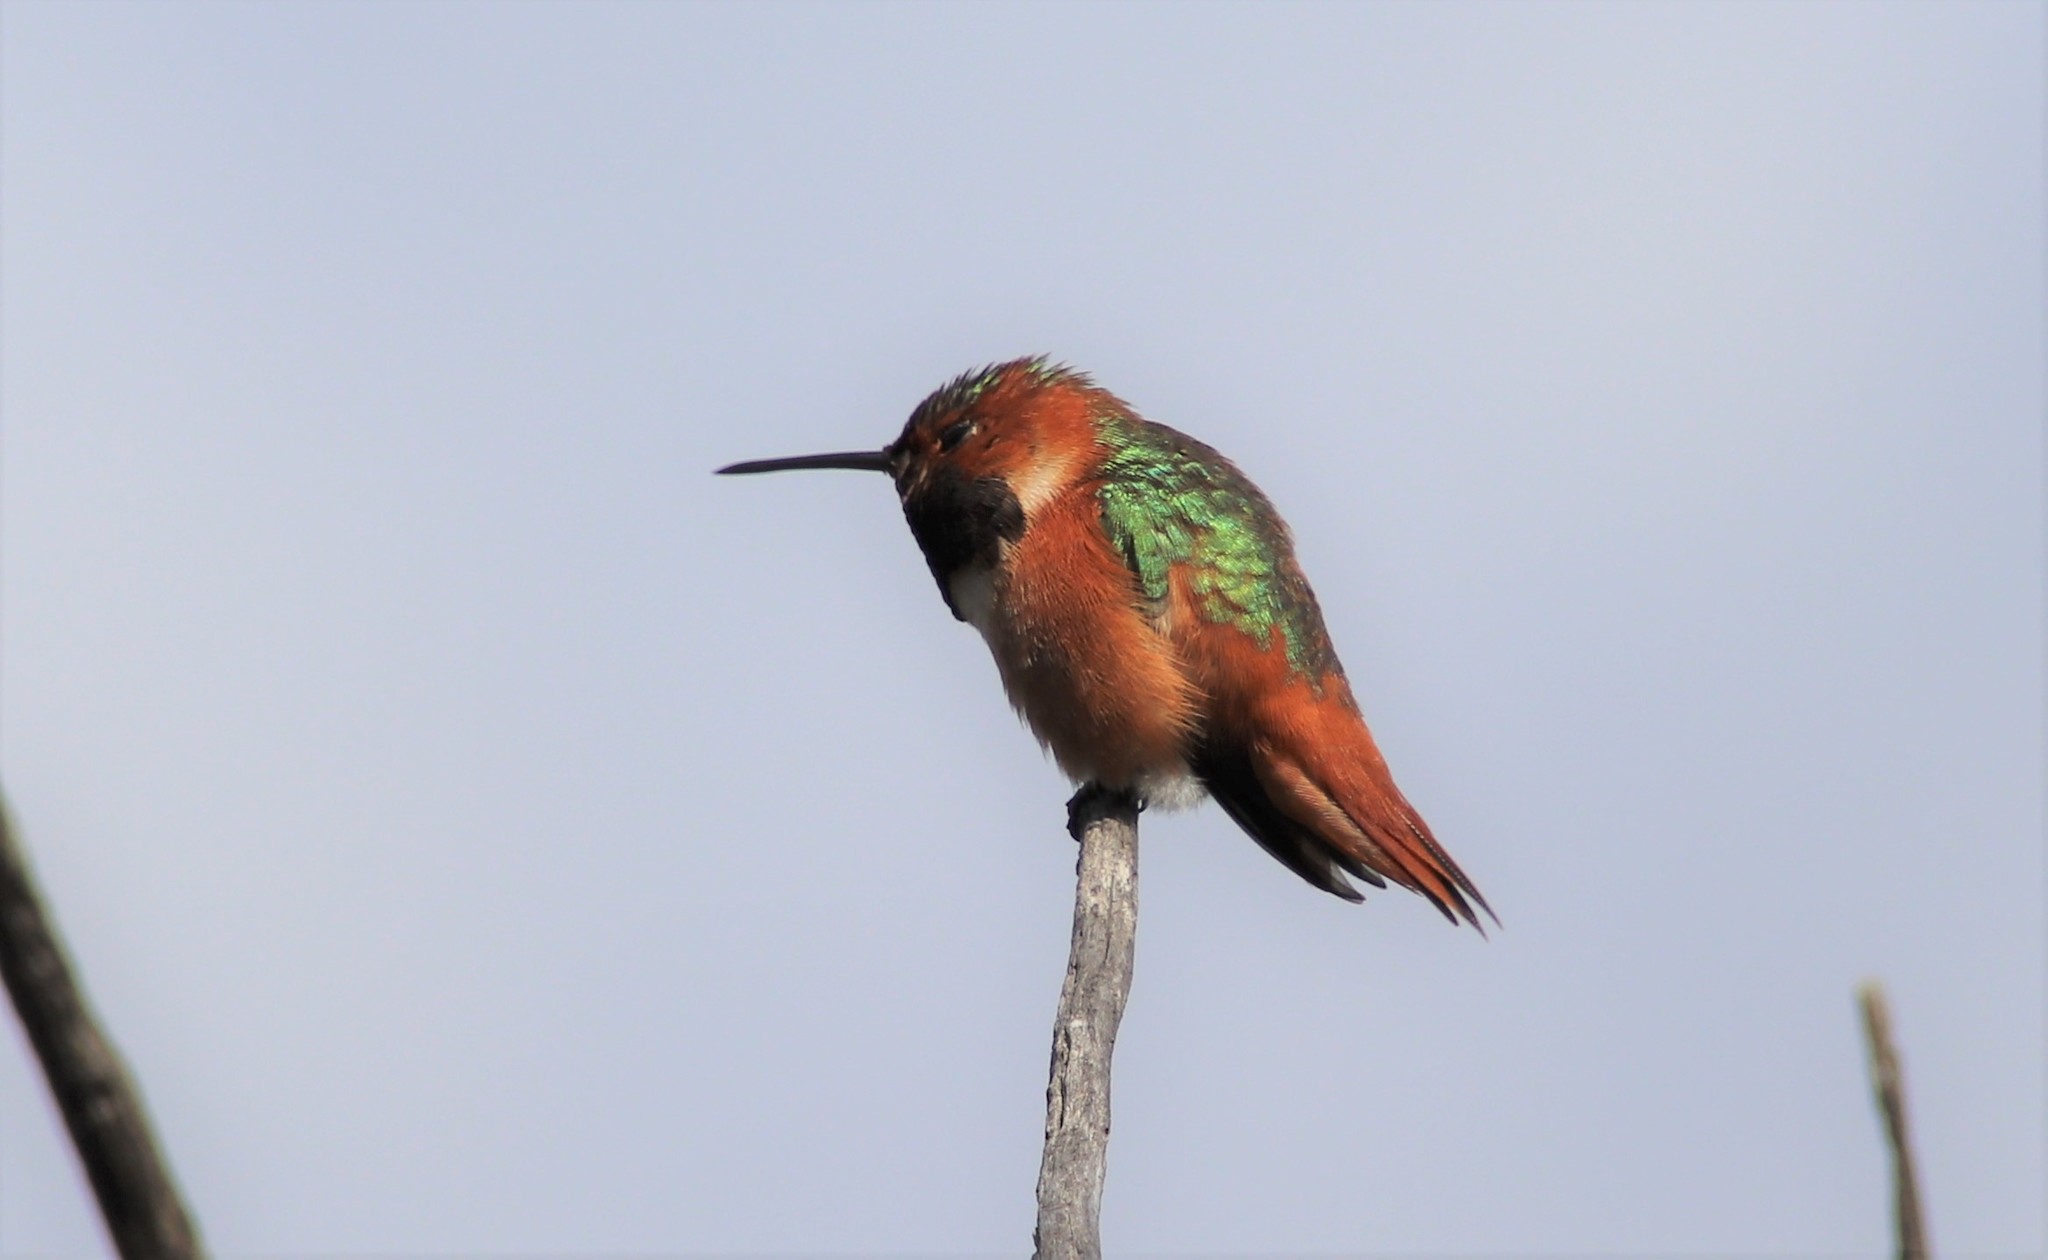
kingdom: Animalia
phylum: Chordata
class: Aves
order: Apodiformes
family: Trochilidae
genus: Selasphorus
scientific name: Selasphorus sasin
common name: Allen's hummingbird
